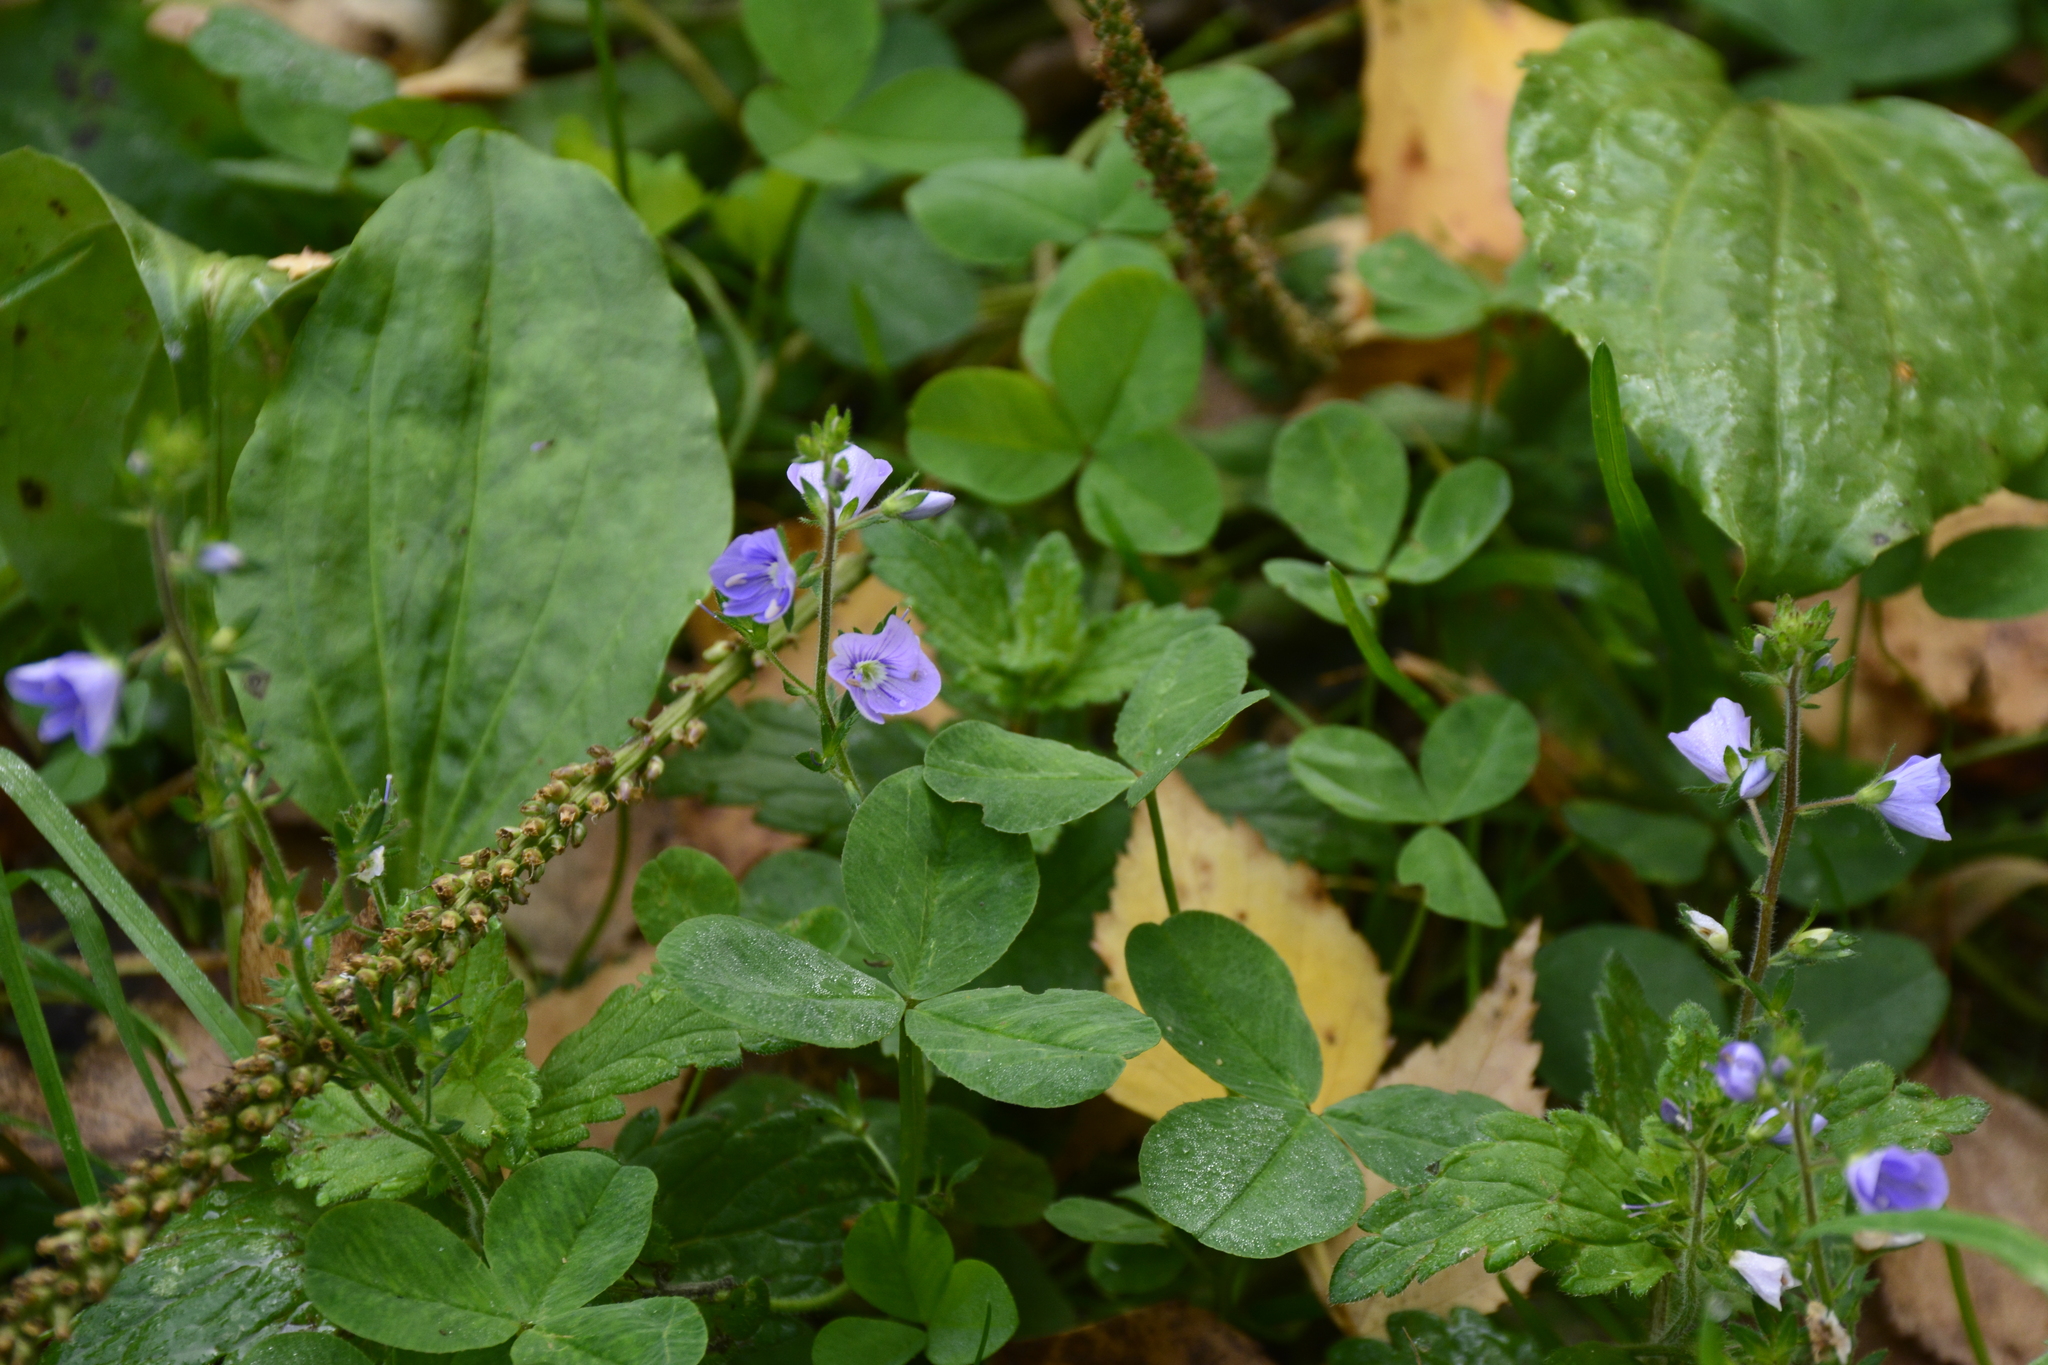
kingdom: Plantae
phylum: Tracheophyta
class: Magnoliopsida
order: Lamiales
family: Plantaginaceae
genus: Veronica
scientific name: Veronica chamaedrys
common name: Germander speedwell
